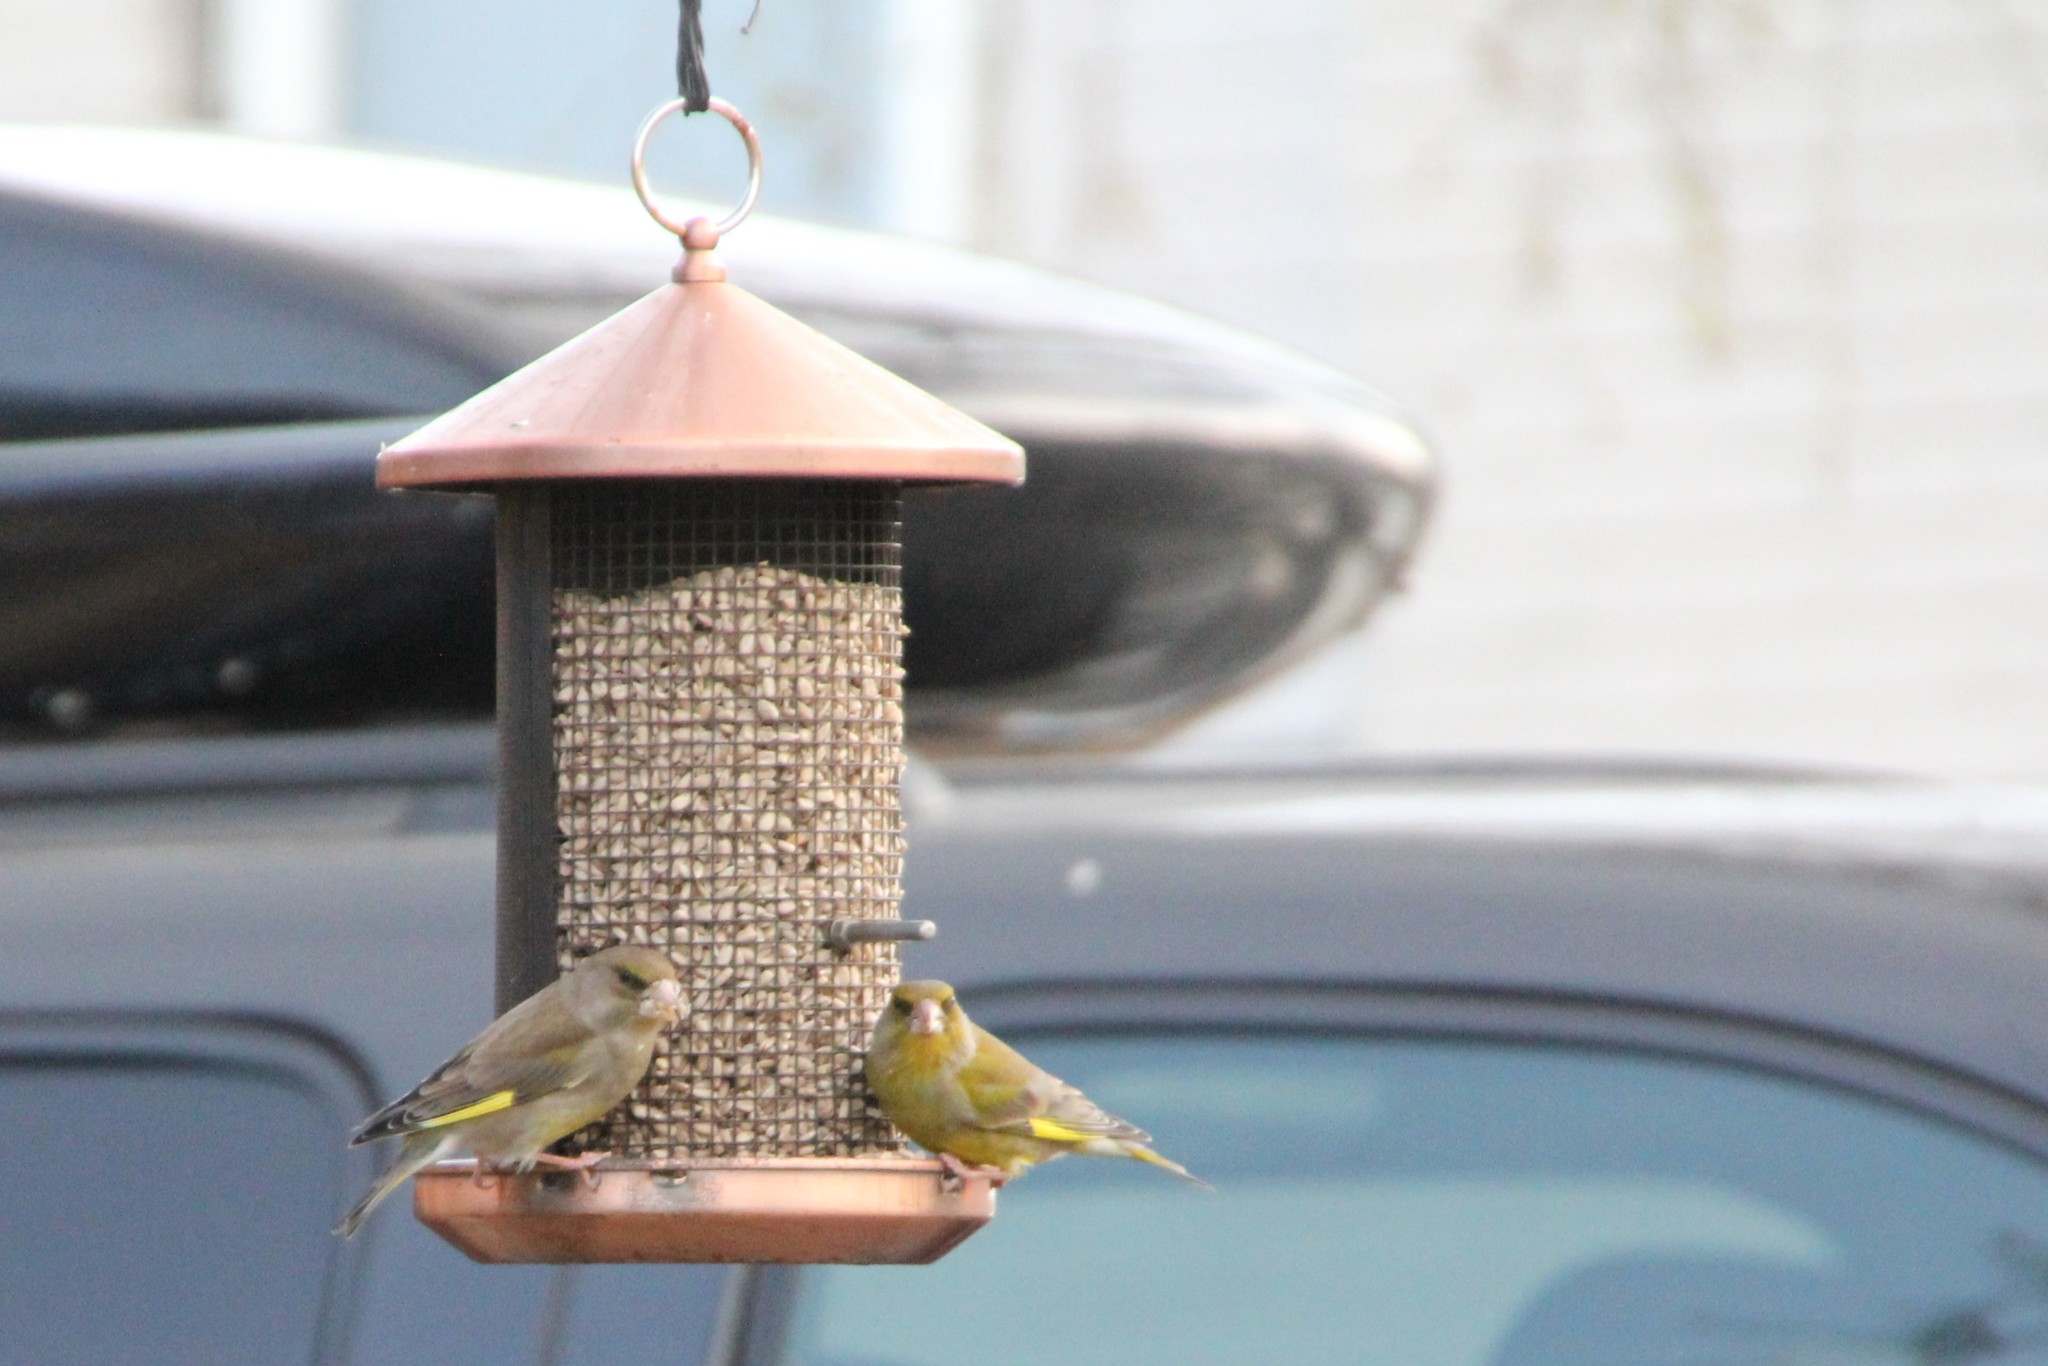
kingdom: Plantae
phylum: Tracheophyta
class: Liliopsida
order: Poales
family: Poaceae
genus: Chloris
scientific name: Chloris chloris
